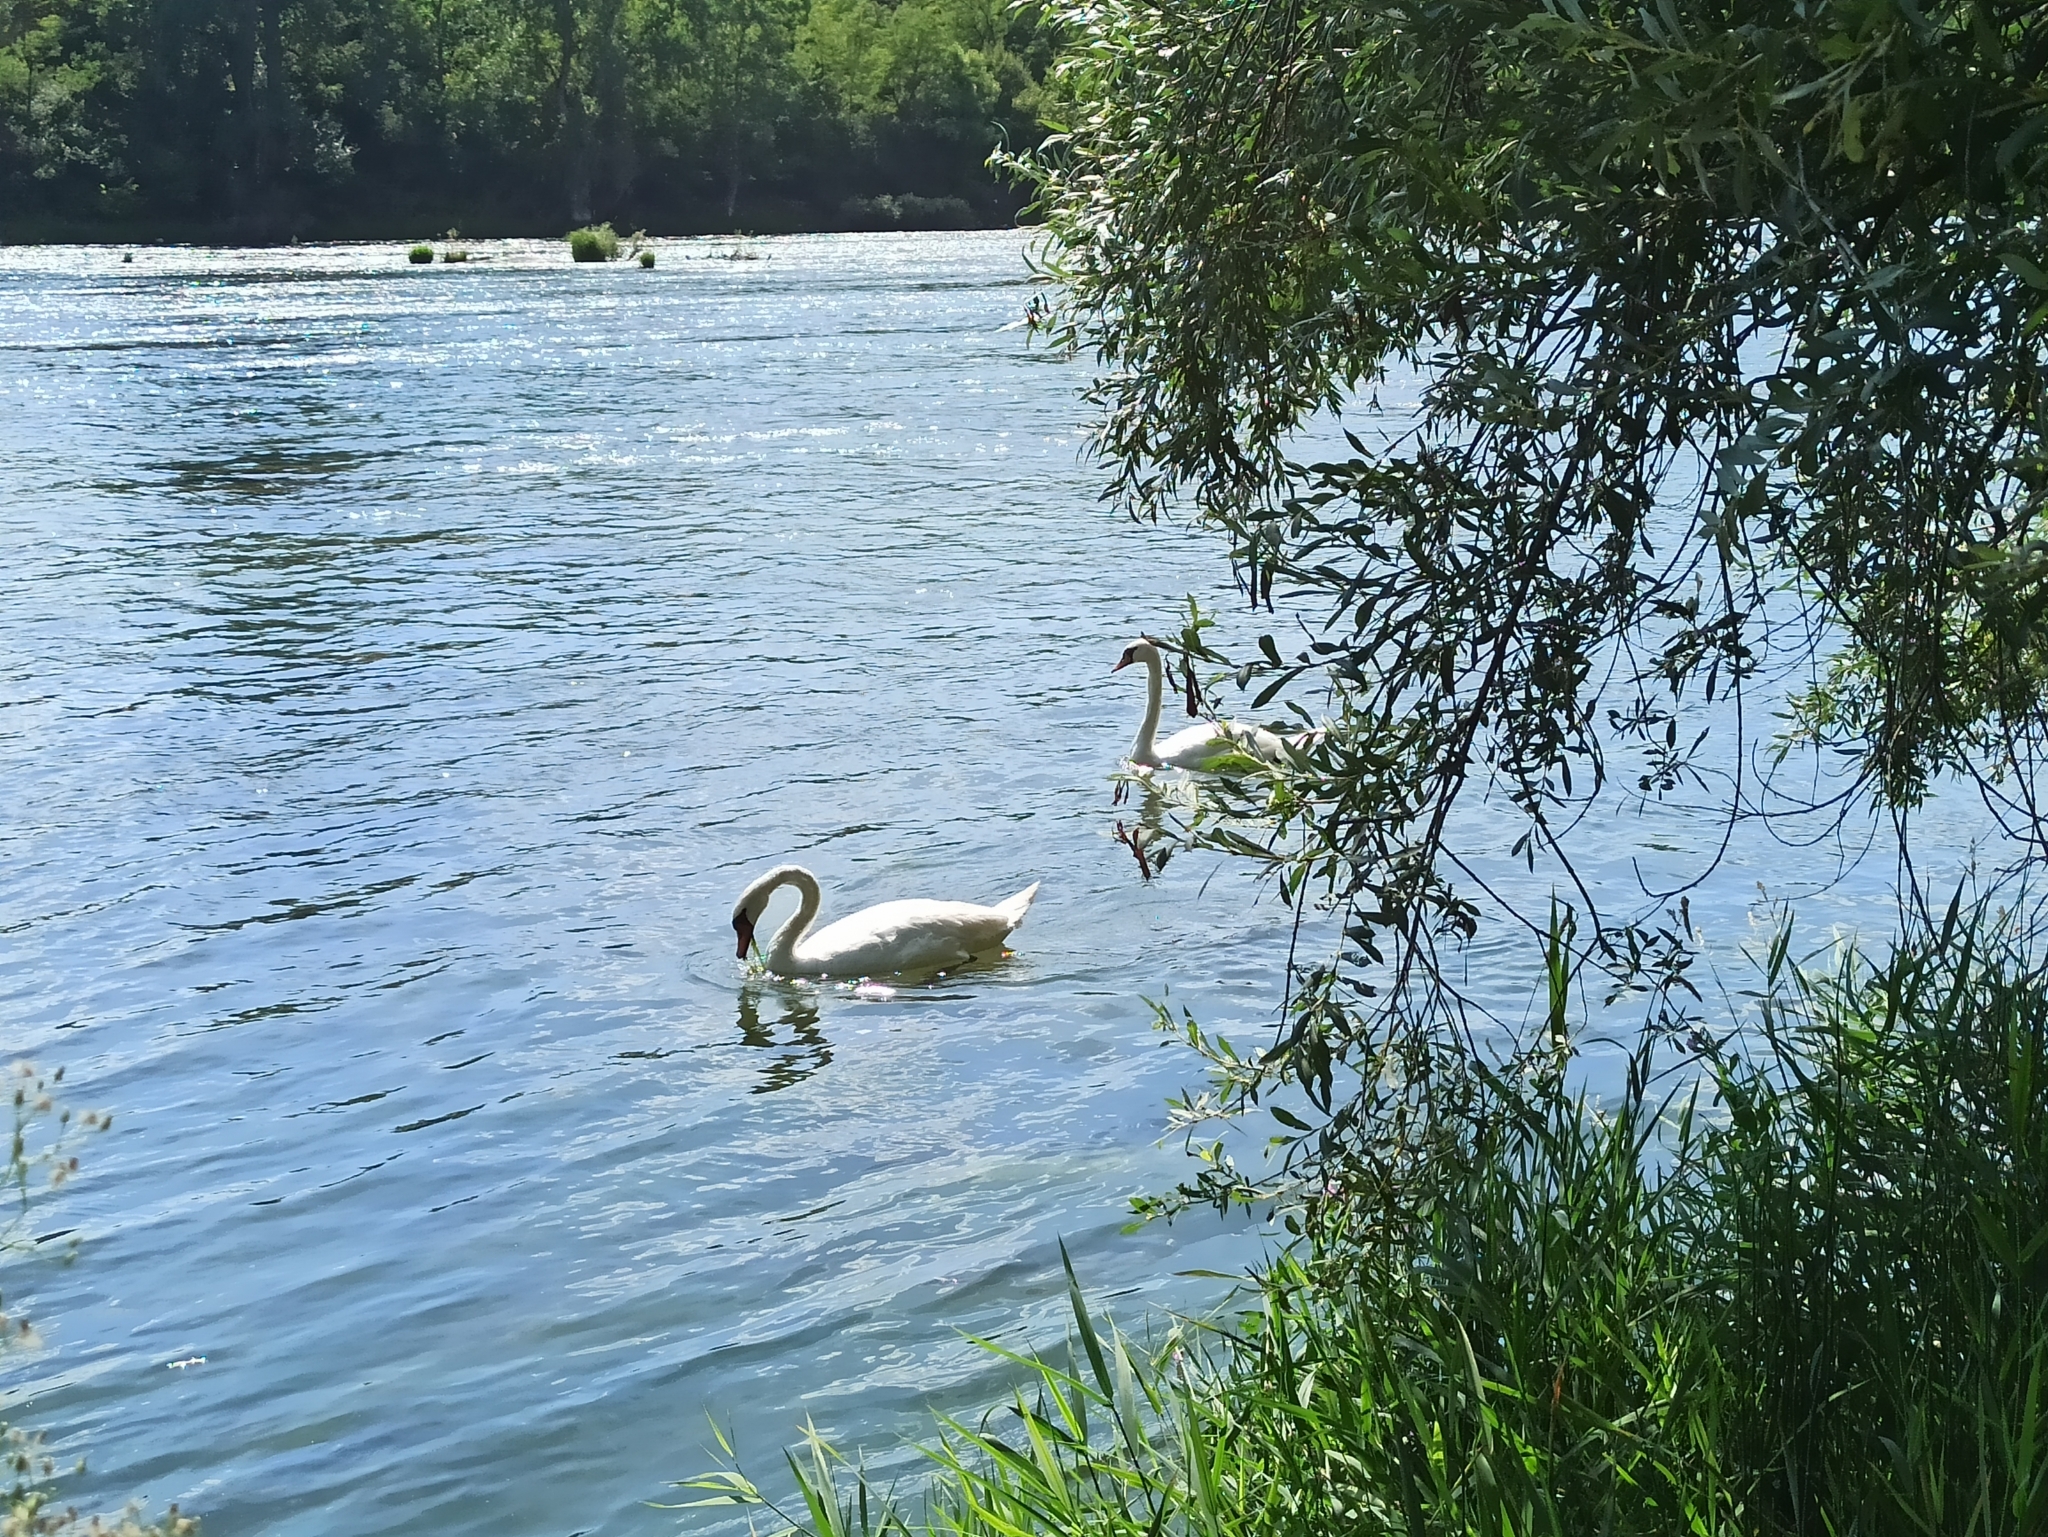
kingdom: Animalia
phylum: Chordata
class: Aves
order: Anseriformes
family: Anatidae
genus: Cygnus
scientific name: Cygnus olor
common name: Mute swan
